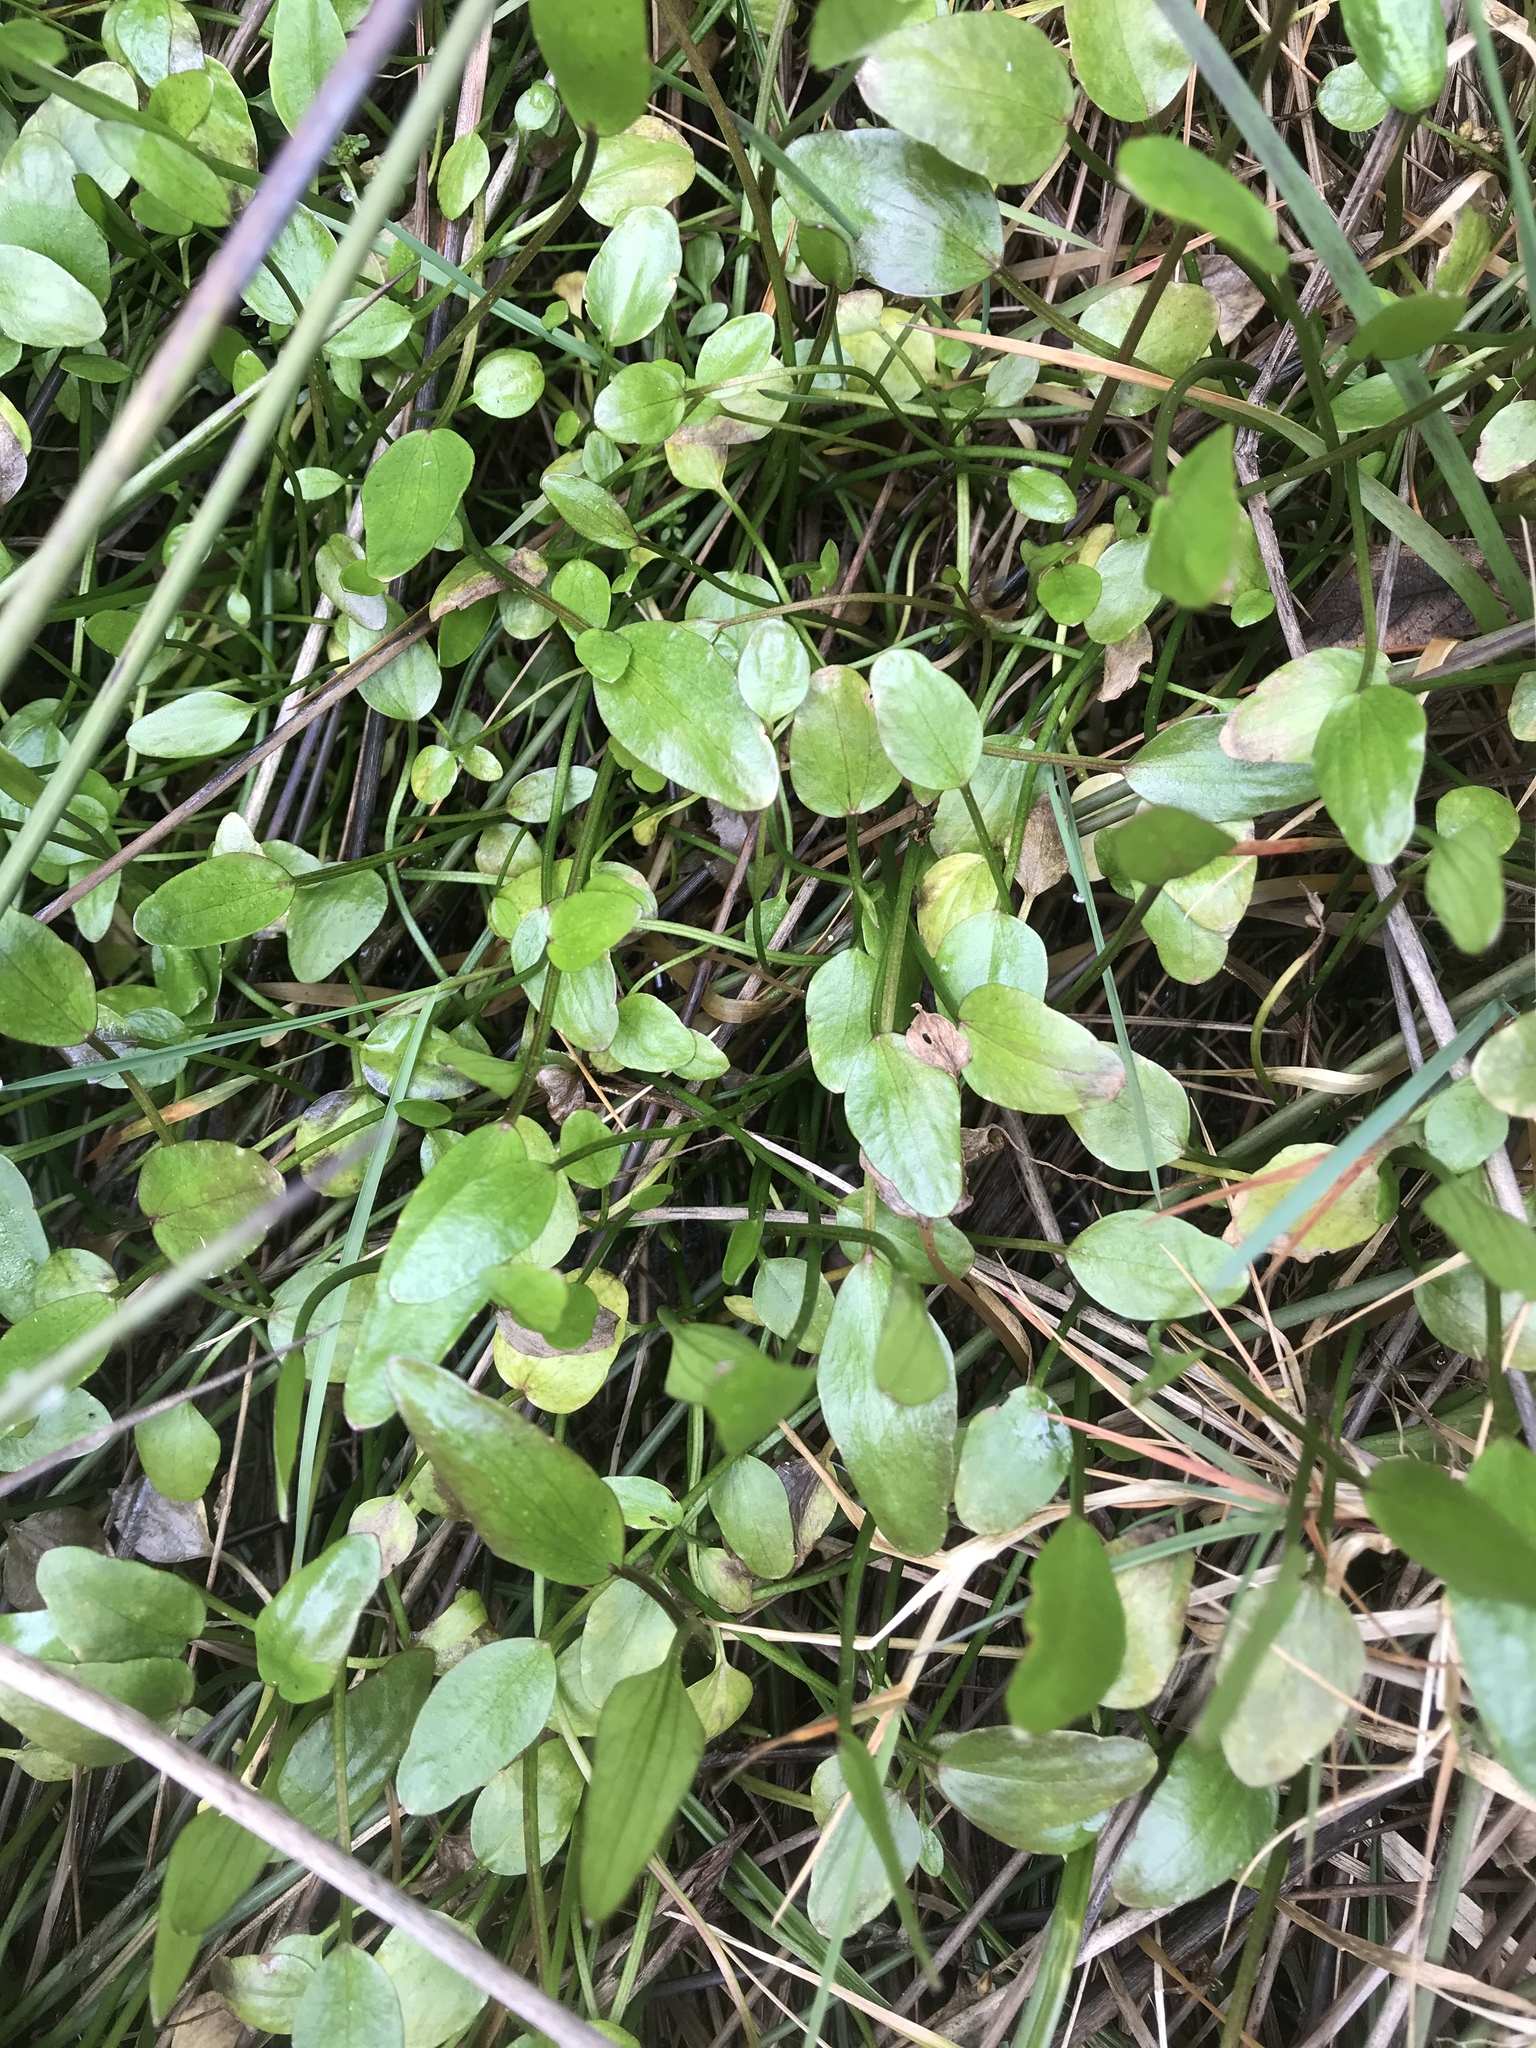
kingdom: Plantae
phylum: Tracheophyta
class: Magnoliopsida
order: Ranunculales
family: Ranunculaceae
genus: Ranunculus
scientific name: Ranunculus flammula
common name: Lesser spearwort
